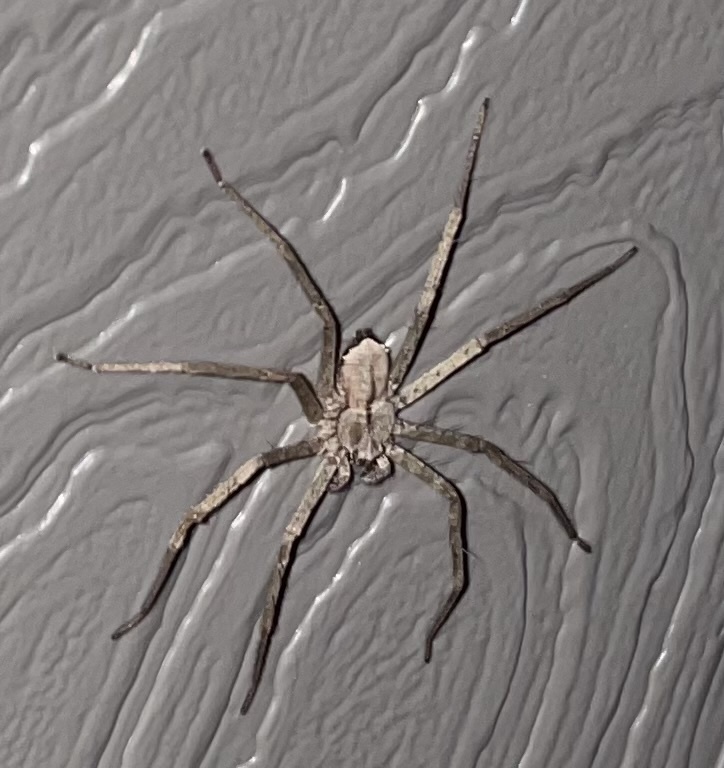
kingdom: Animalia
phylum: Arthropoda
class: Arachnida
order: Araneae
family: Selenopidae
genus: Selenops
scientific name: Selenops submaculosus
